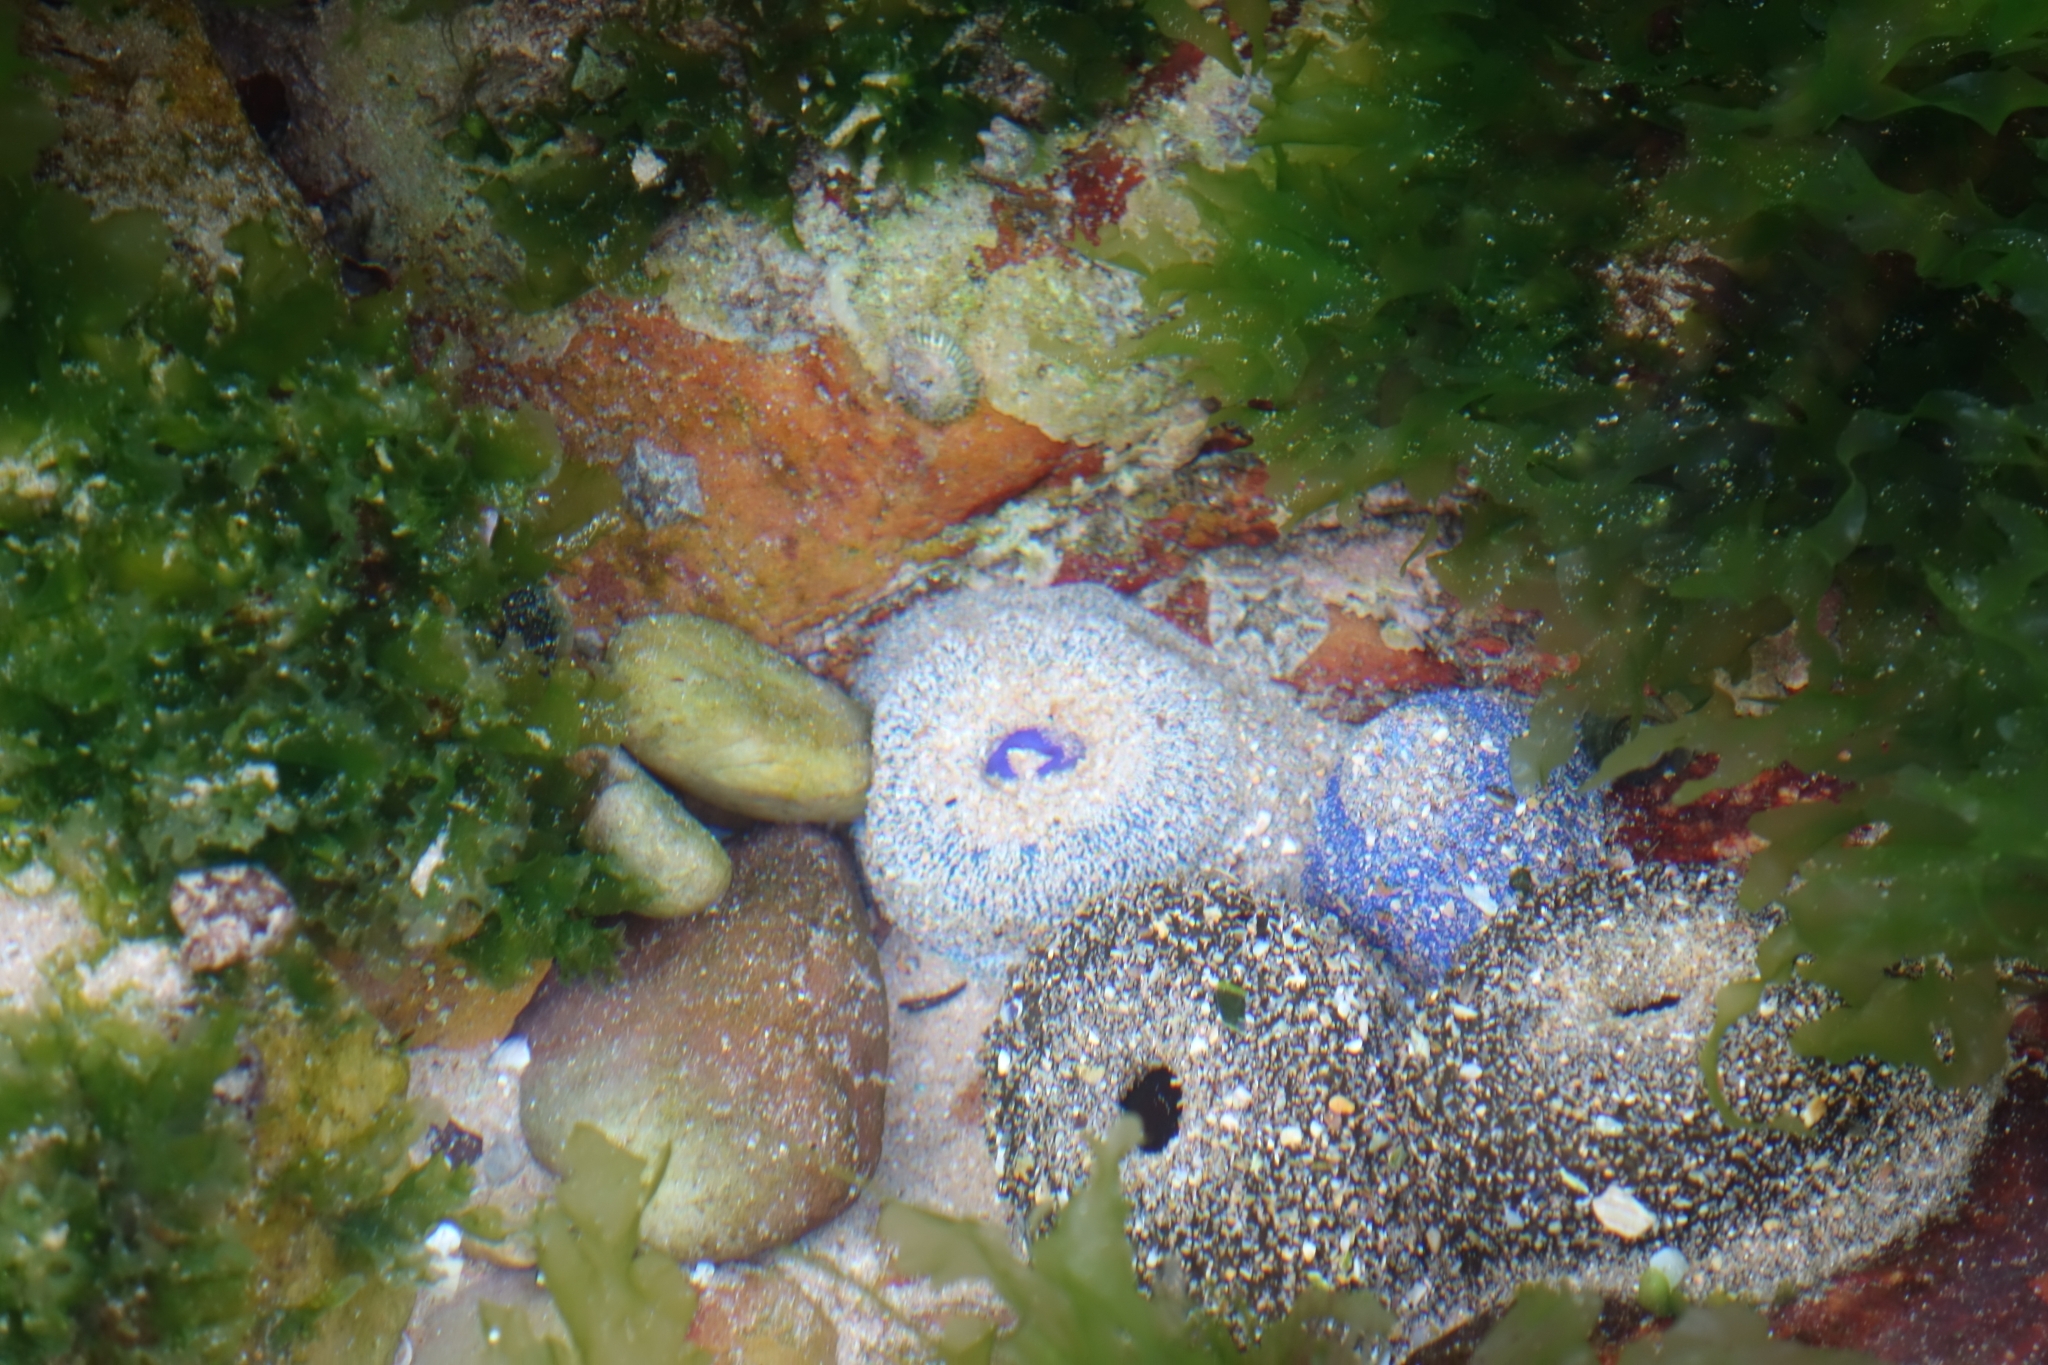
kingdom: Animalia
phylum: Cnidaria
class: Anthozoa
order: Actiniaria
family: Actiniidae
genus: Bunodactis
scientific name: Bunodactis reynaudi
